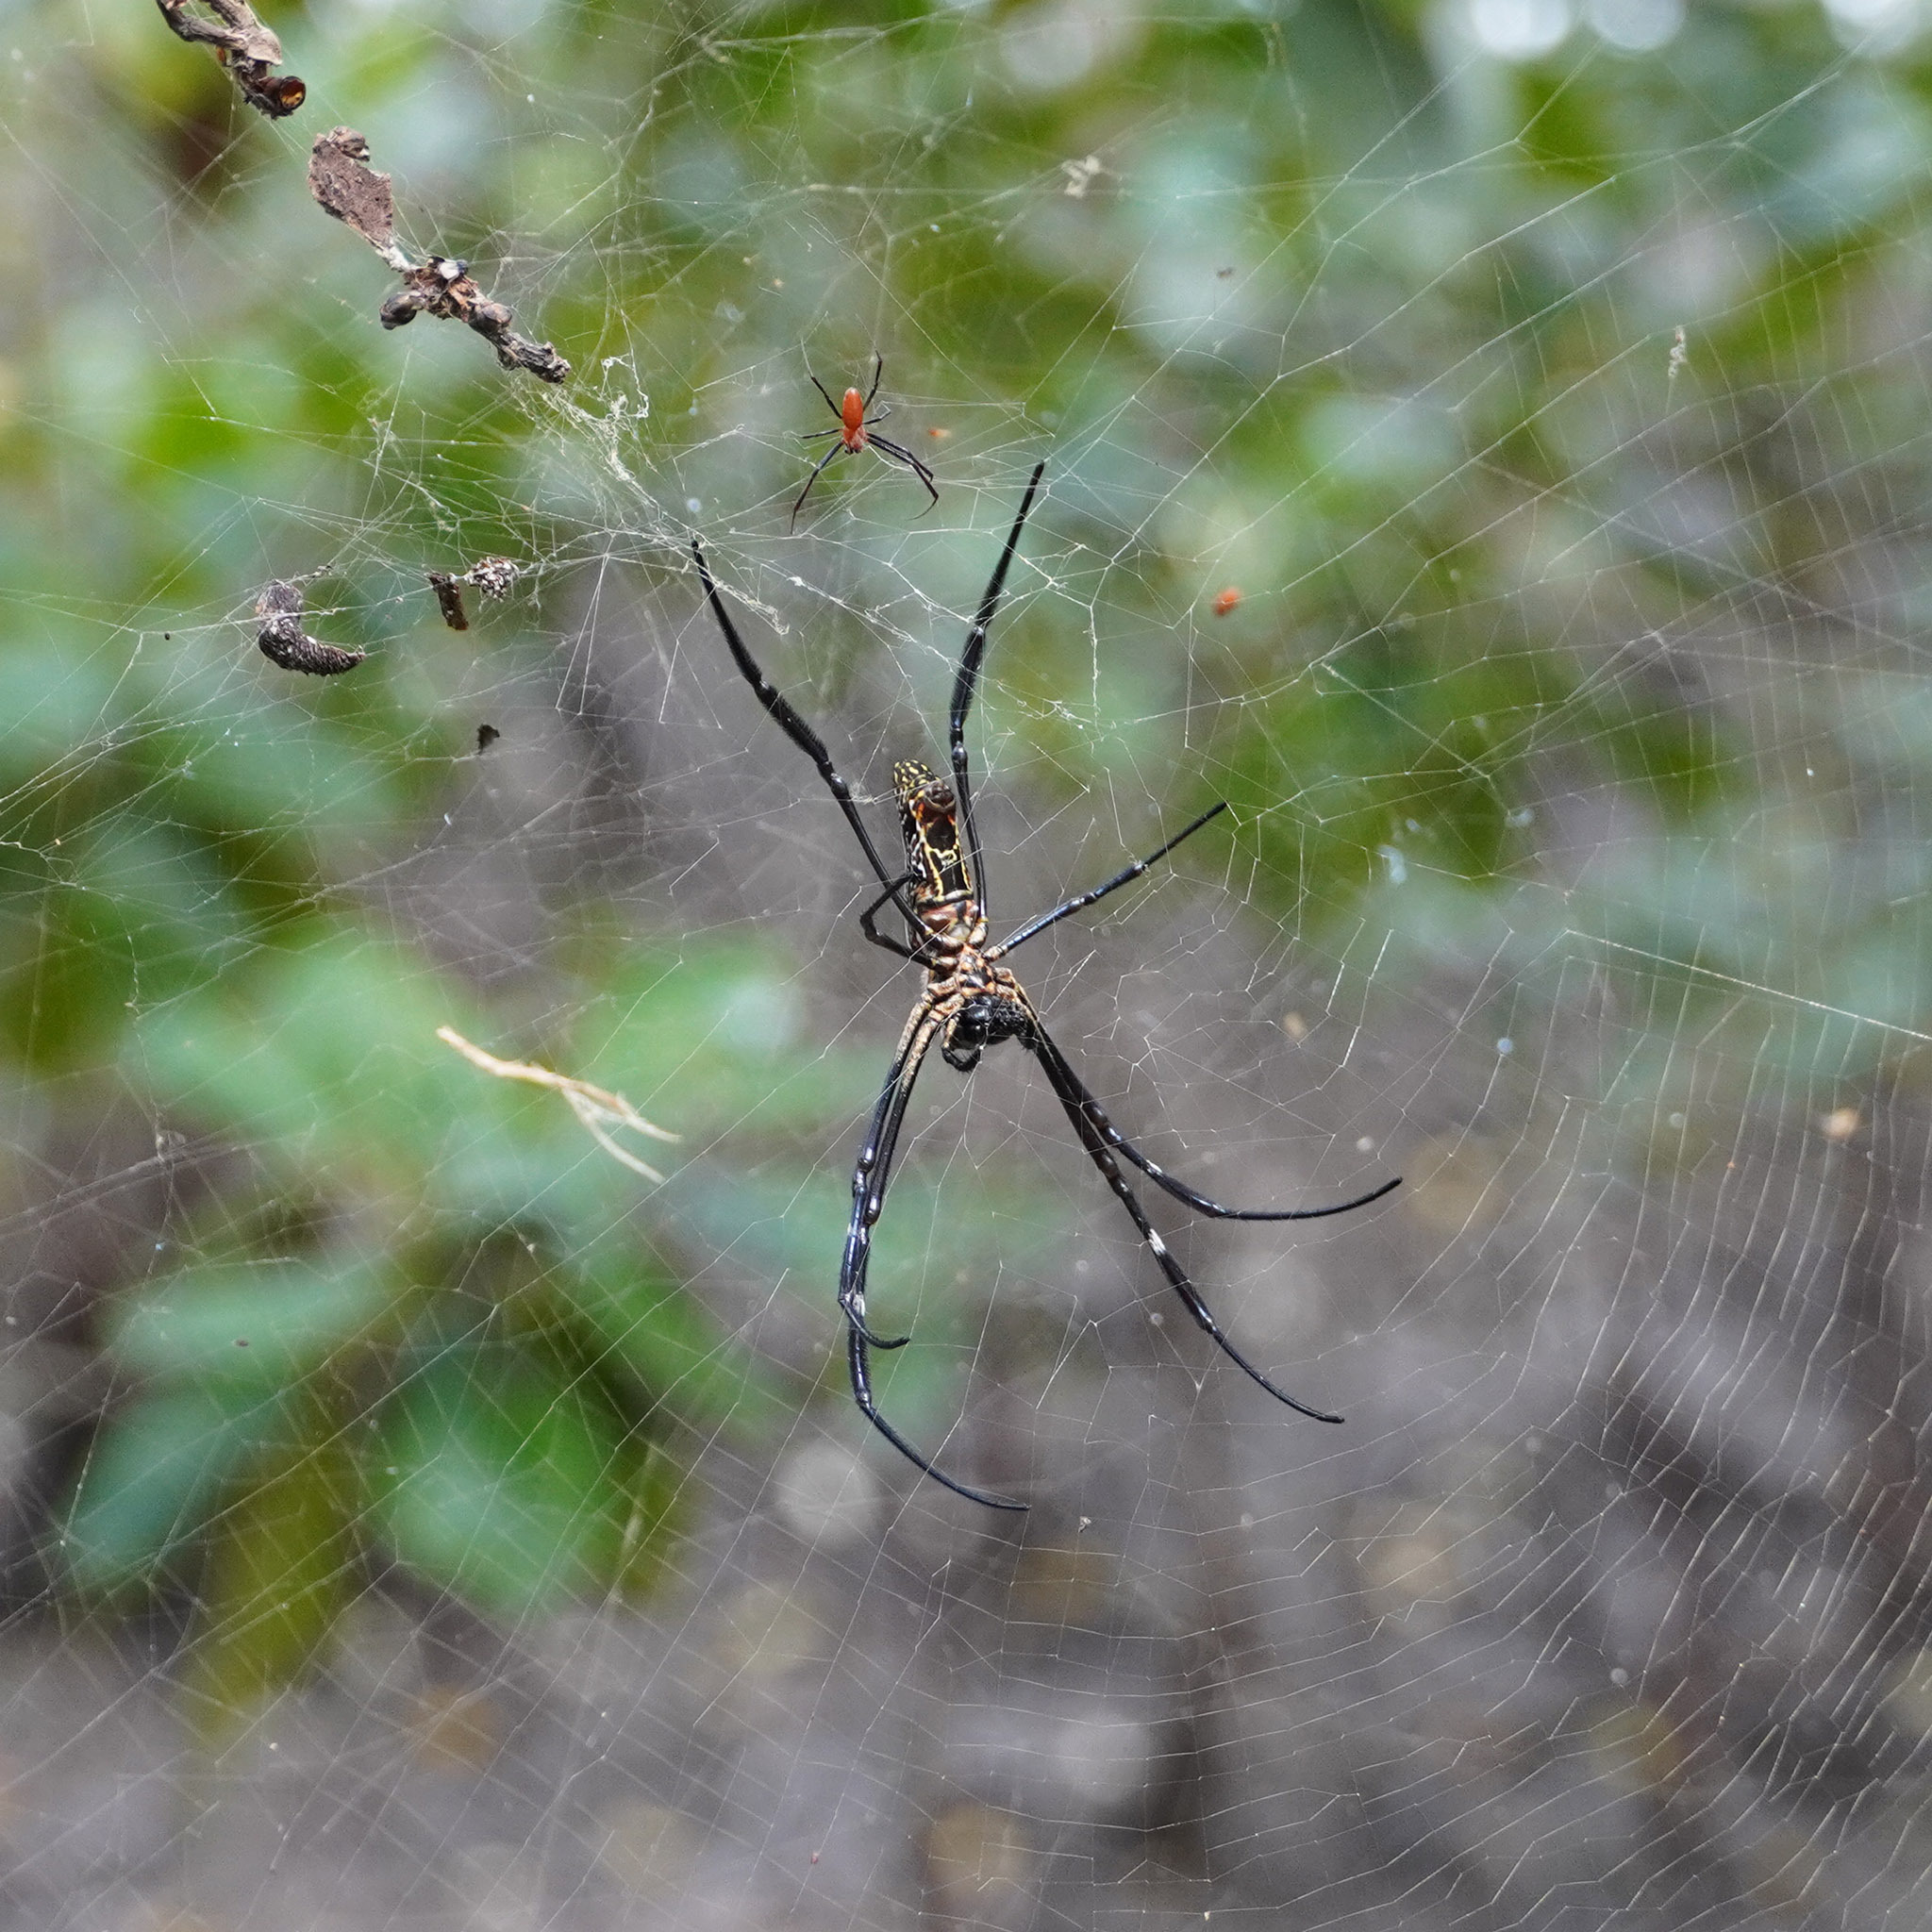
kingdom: Animalia
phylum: Arthropoda
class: Arachnida
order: Araneae
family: Araneidae
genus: Trichonephila
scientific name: Trichonephila antipodiana
